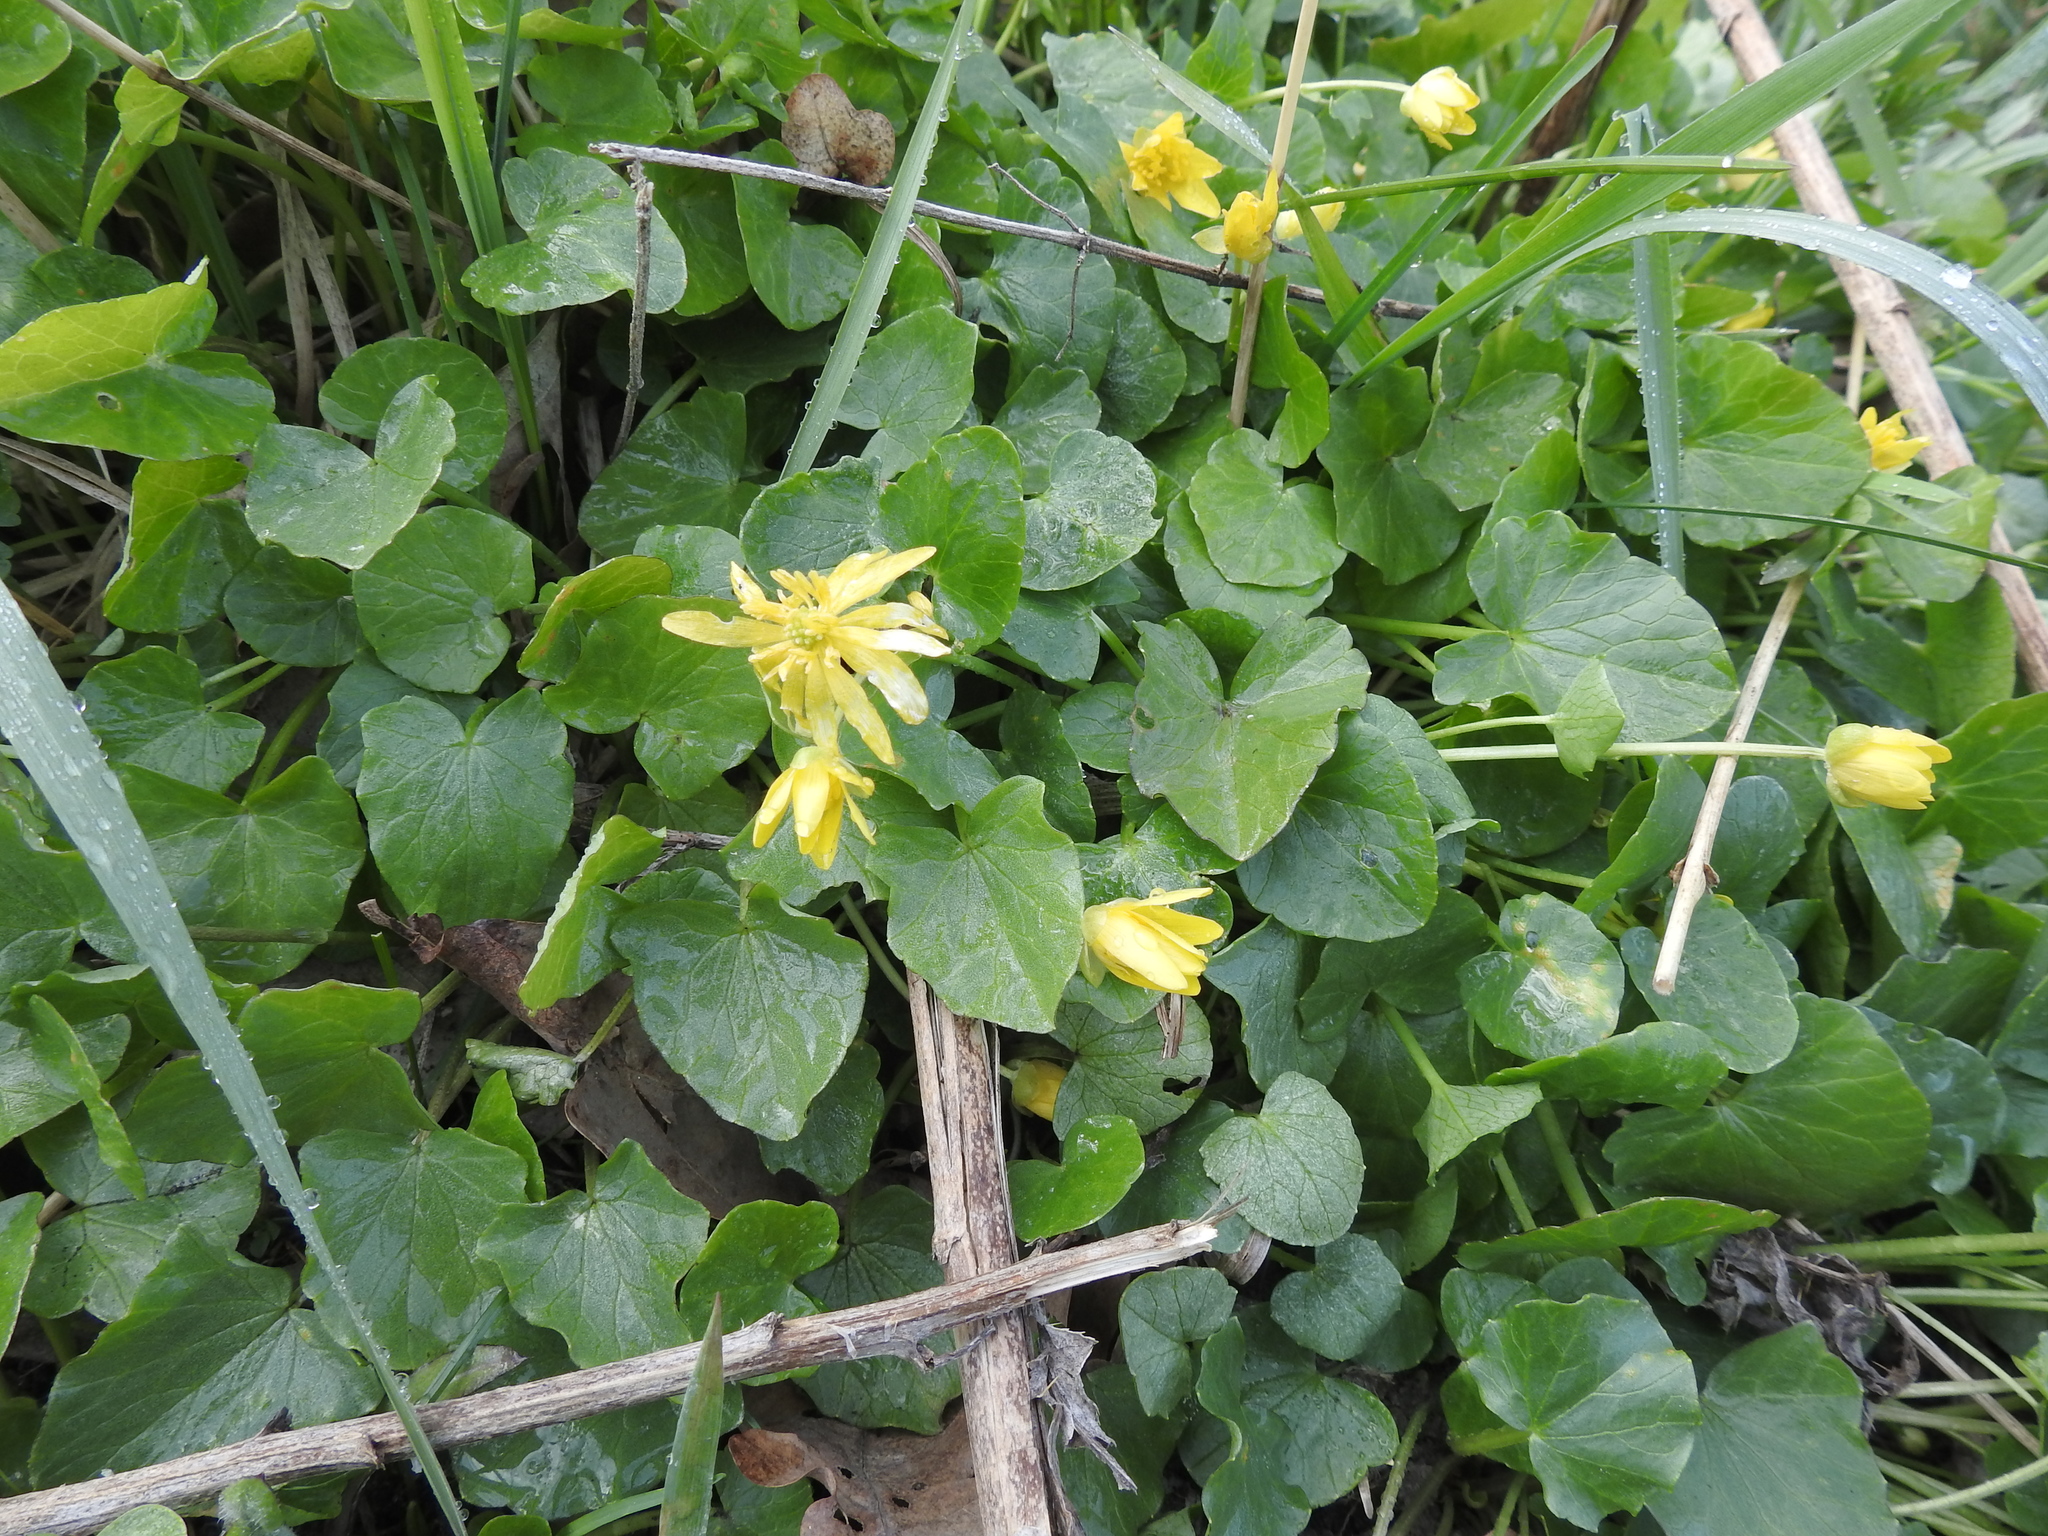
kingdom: Plantae
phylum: Tracheophyta
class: Magnoliopsida
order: Ranunculales
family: Ranunculaceae
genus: Ficaria
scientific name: Ficaria verna
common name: Lesser celandine
